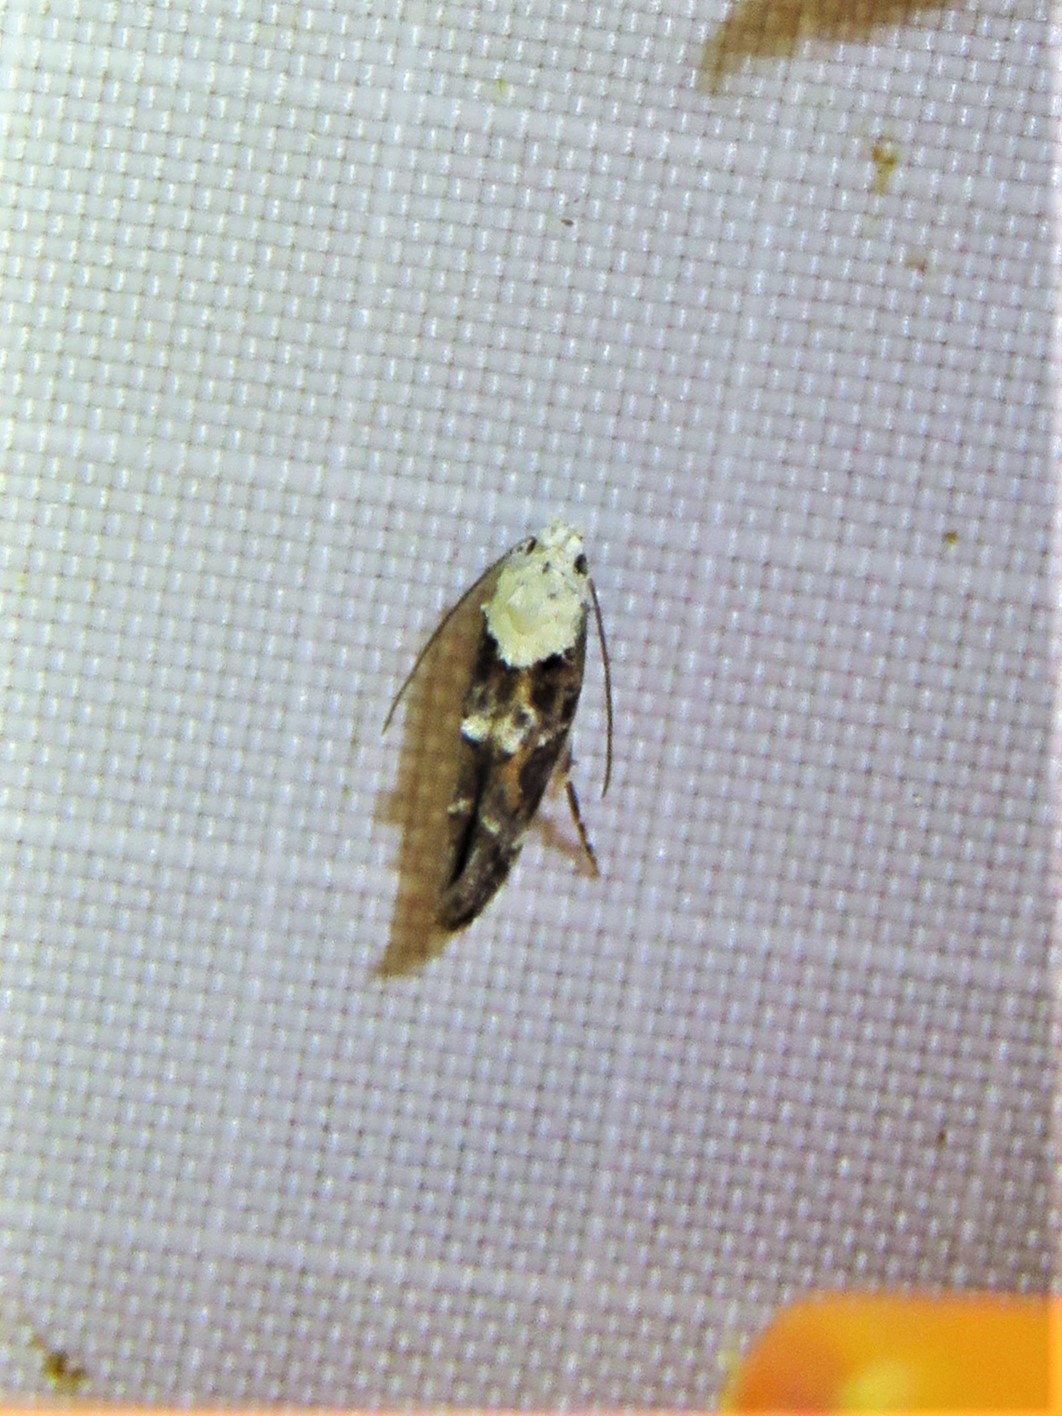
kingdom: Animalia
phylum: Arthropoda
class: Insecta
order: Lepidoptera
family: Momphidae
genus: Mompha
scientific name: Mompha albocapitella
